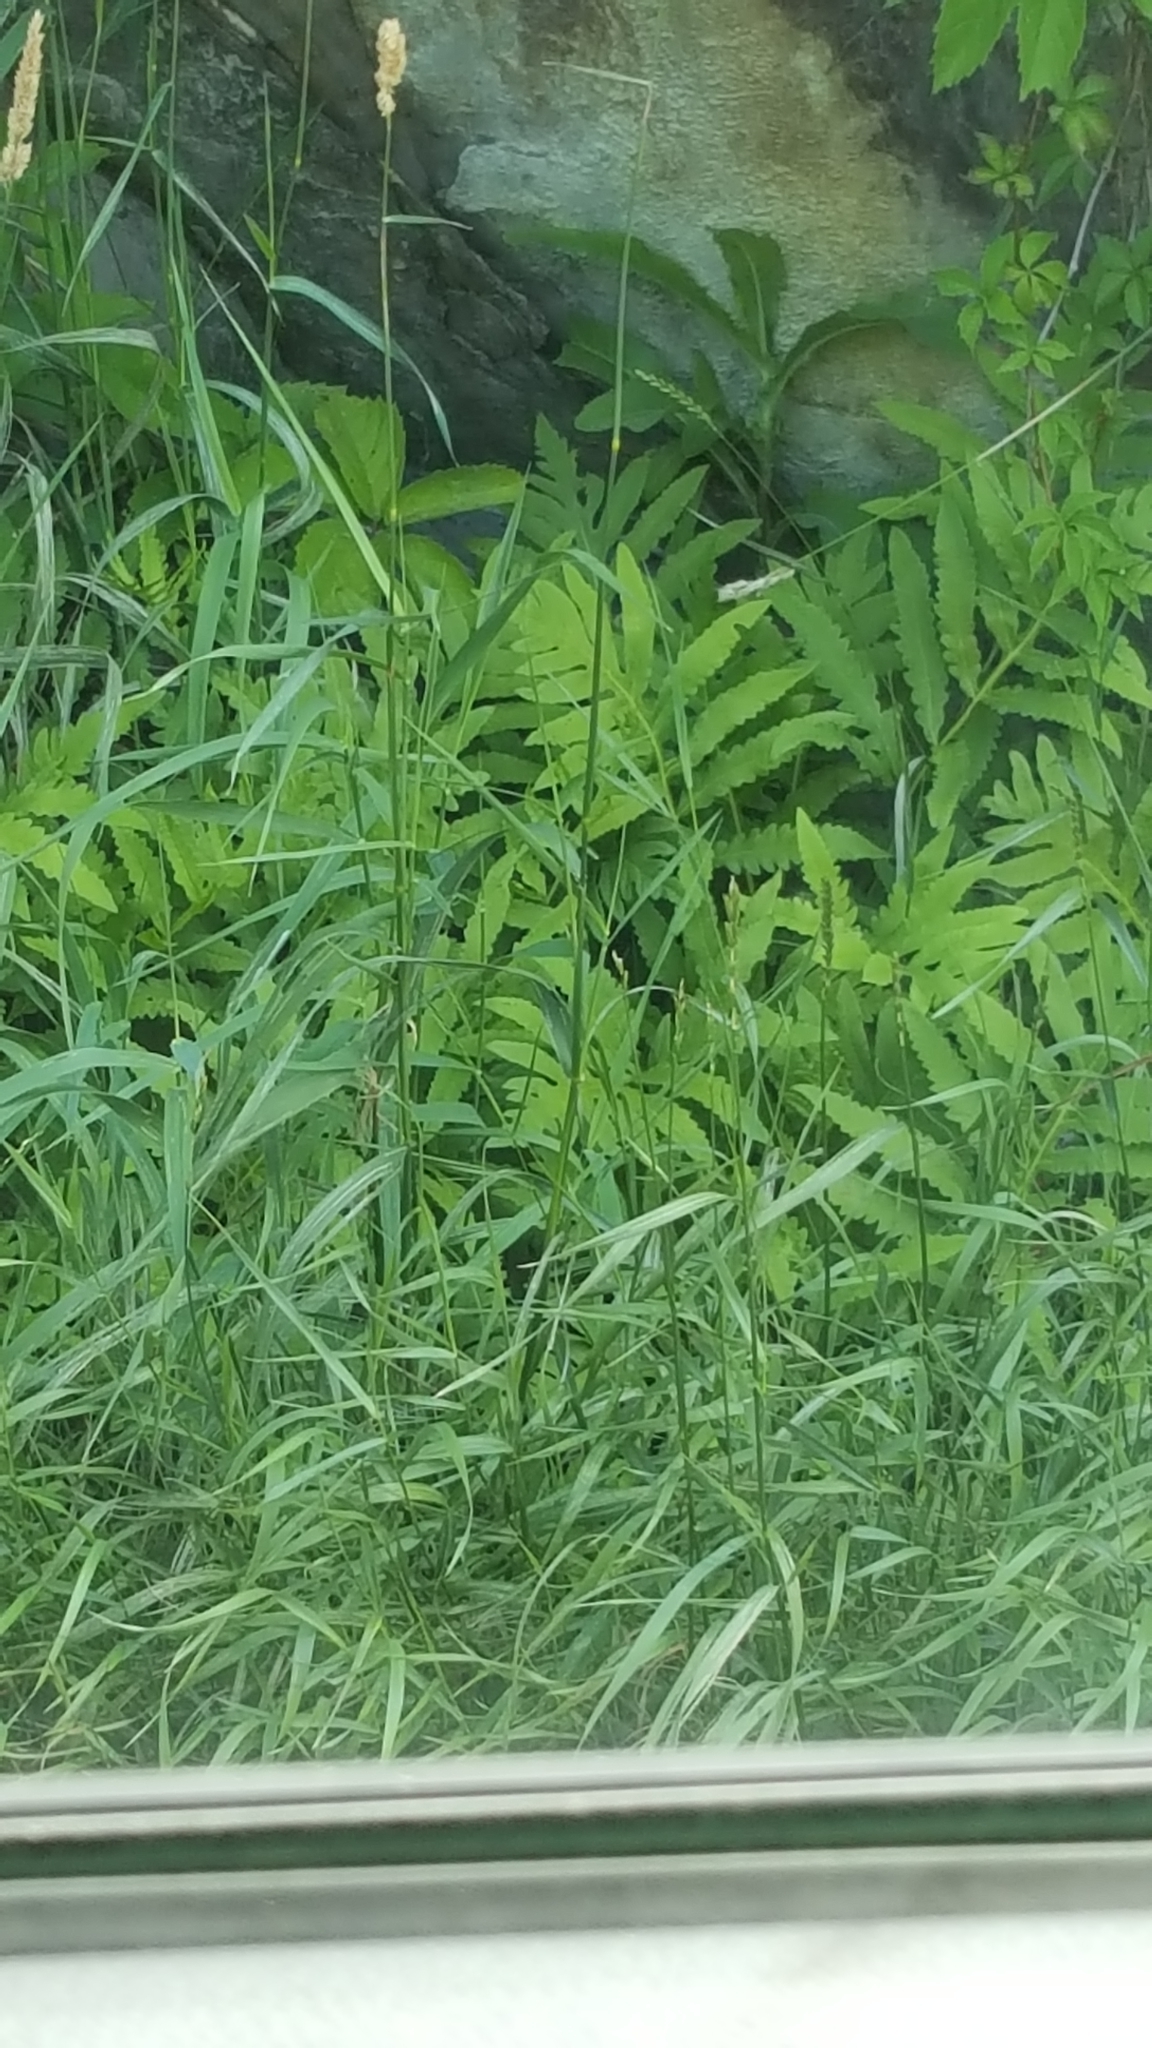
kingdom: Plantae
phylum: Tracheophyta
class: Polypodiopsida
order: Polypodiales
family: Onocleaceae
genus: Onoclea
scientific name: Onoclea sensibilis
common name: Sensitive fern
